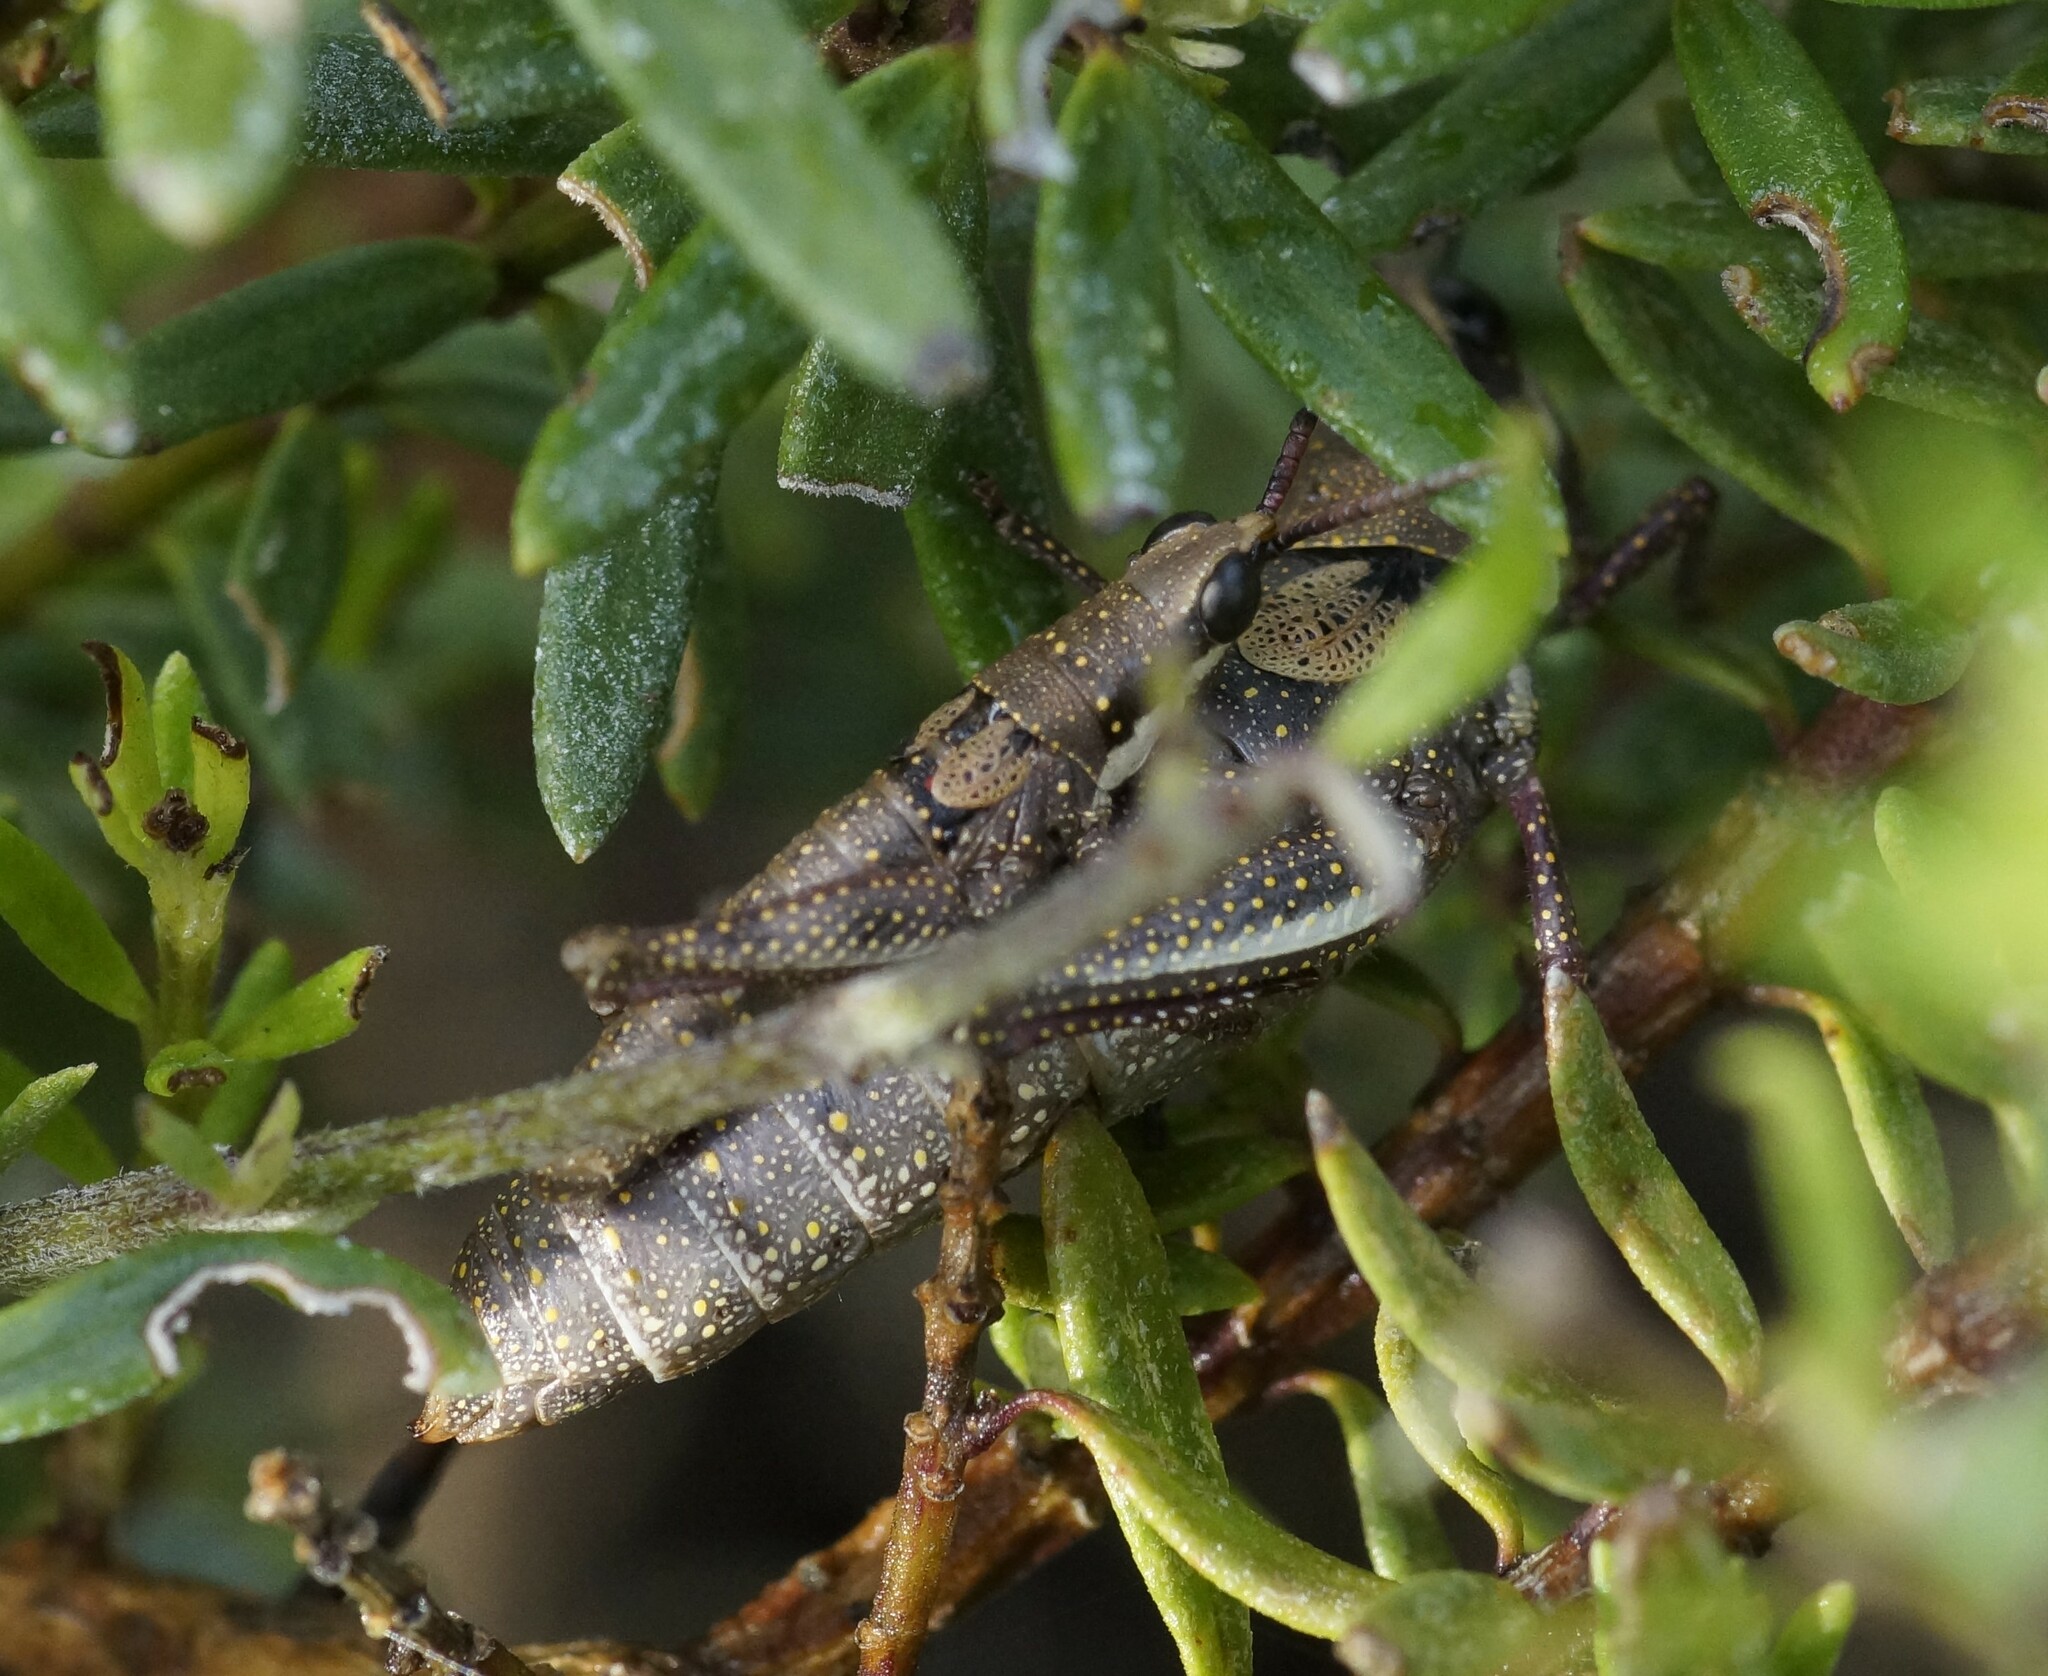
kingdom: Animalia
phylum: Arthropoda
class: Insecta
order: Orthoptera
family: Pyrgomorphidae
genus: Monistria
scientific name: Monistria discrepans
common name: Common pyrgomorph
